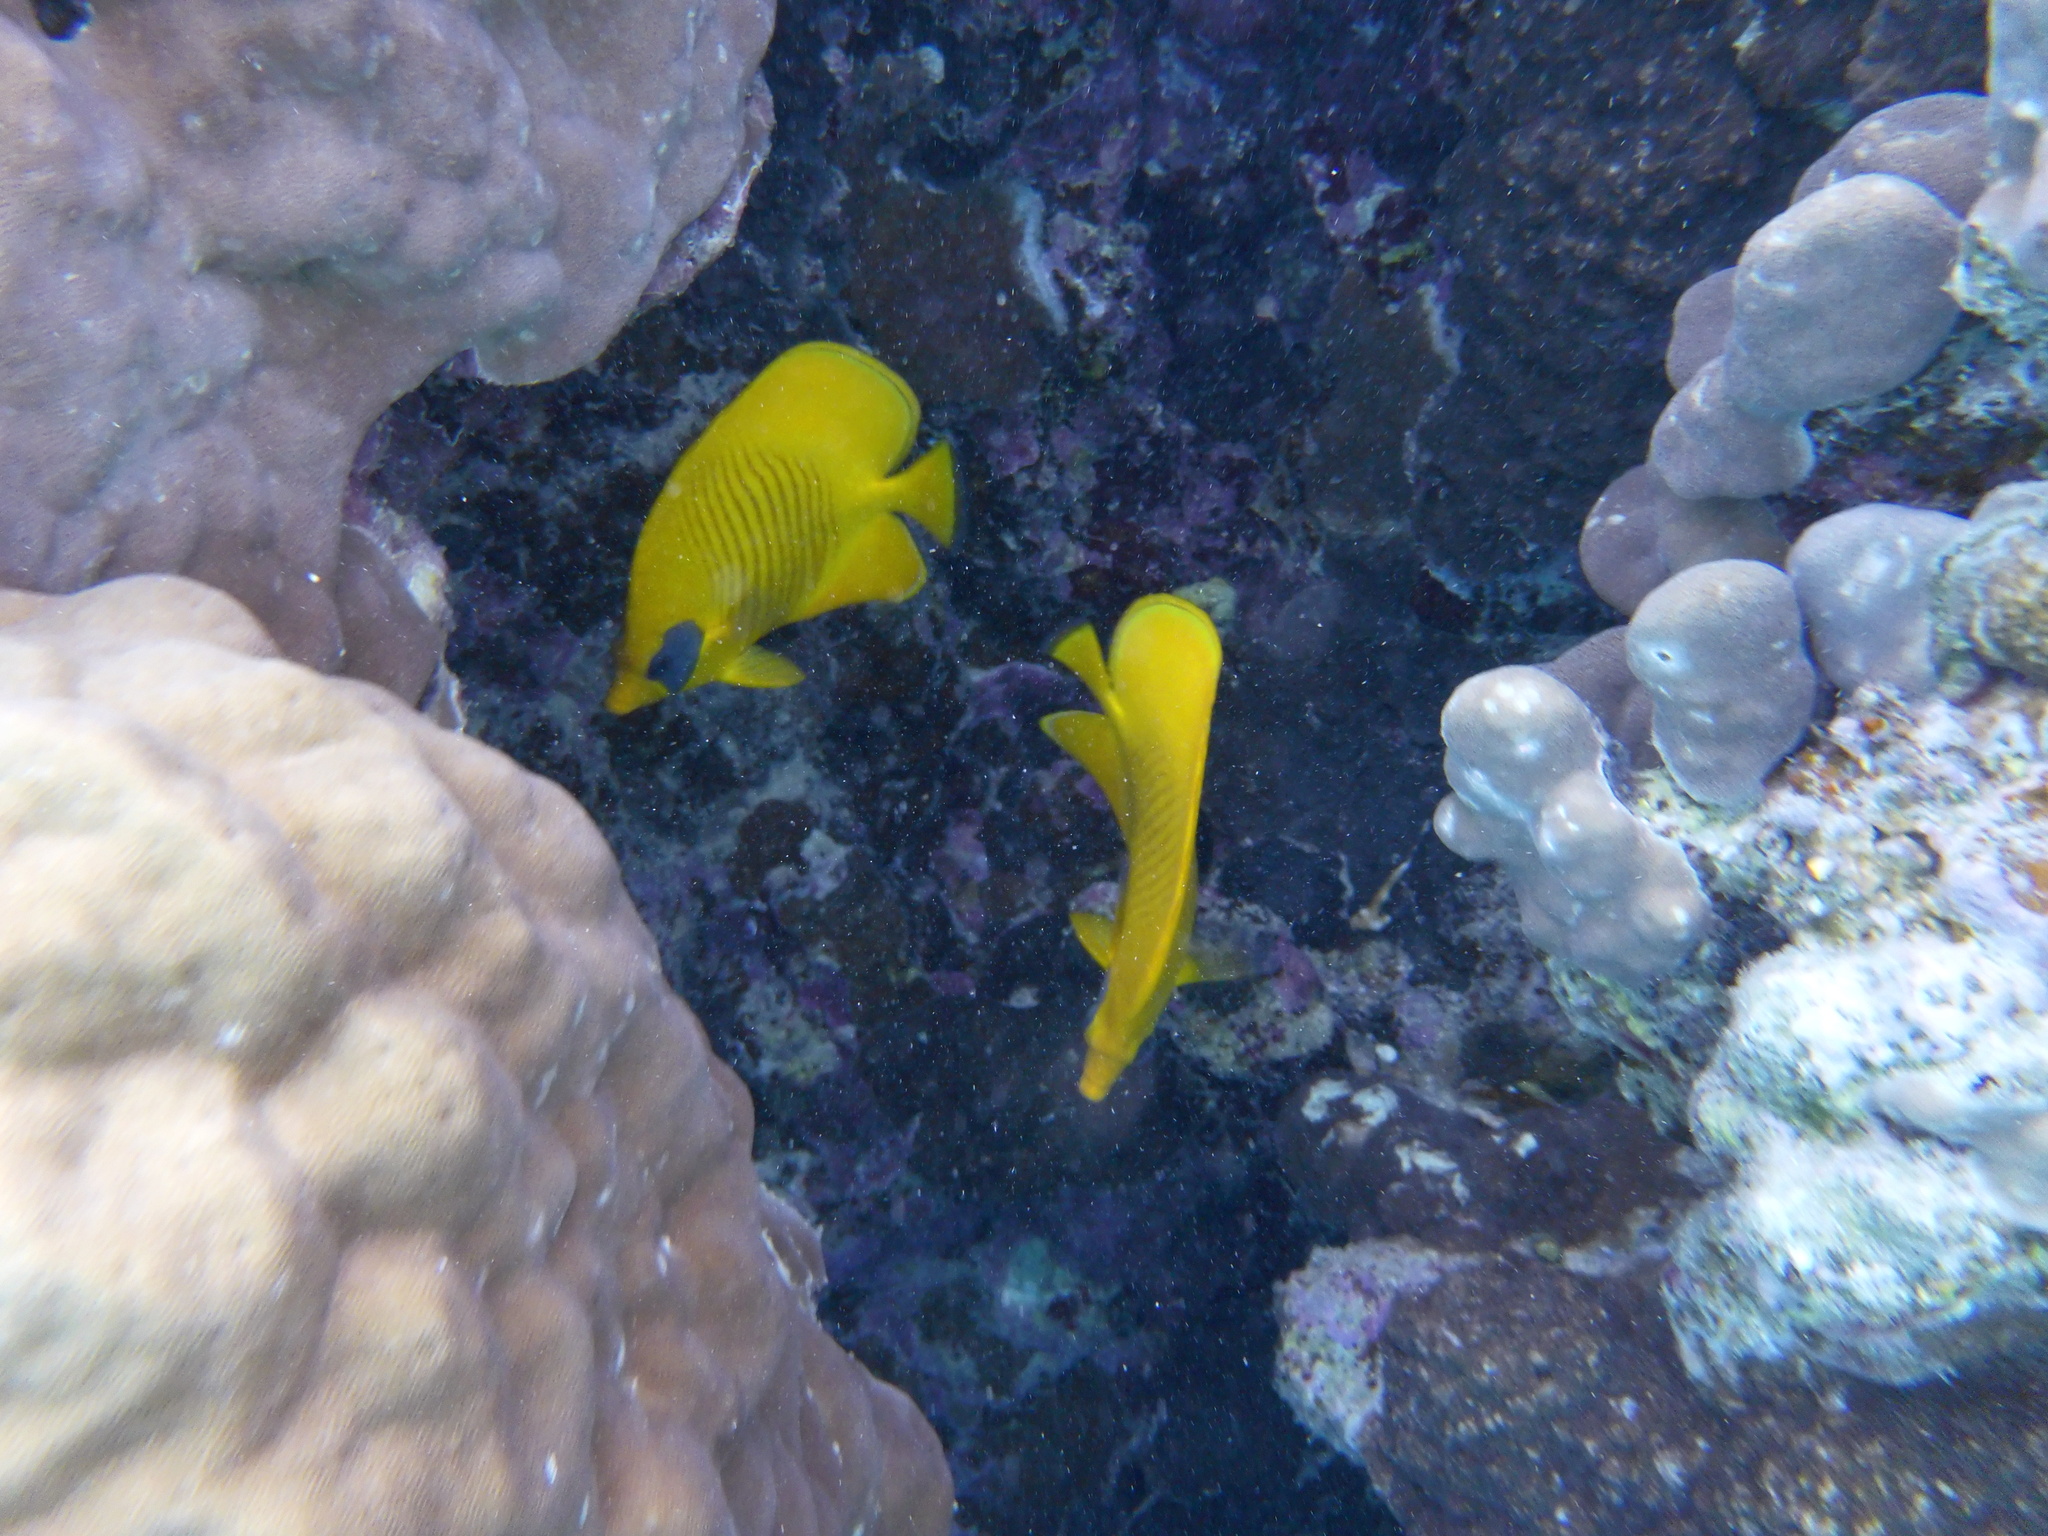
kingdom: Animalia
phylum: Chordata
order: Perciformes
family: Chaetodontidae
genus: Chaetodon
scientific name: Chaetodon semilarvatus
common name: Golden butterflyfish
